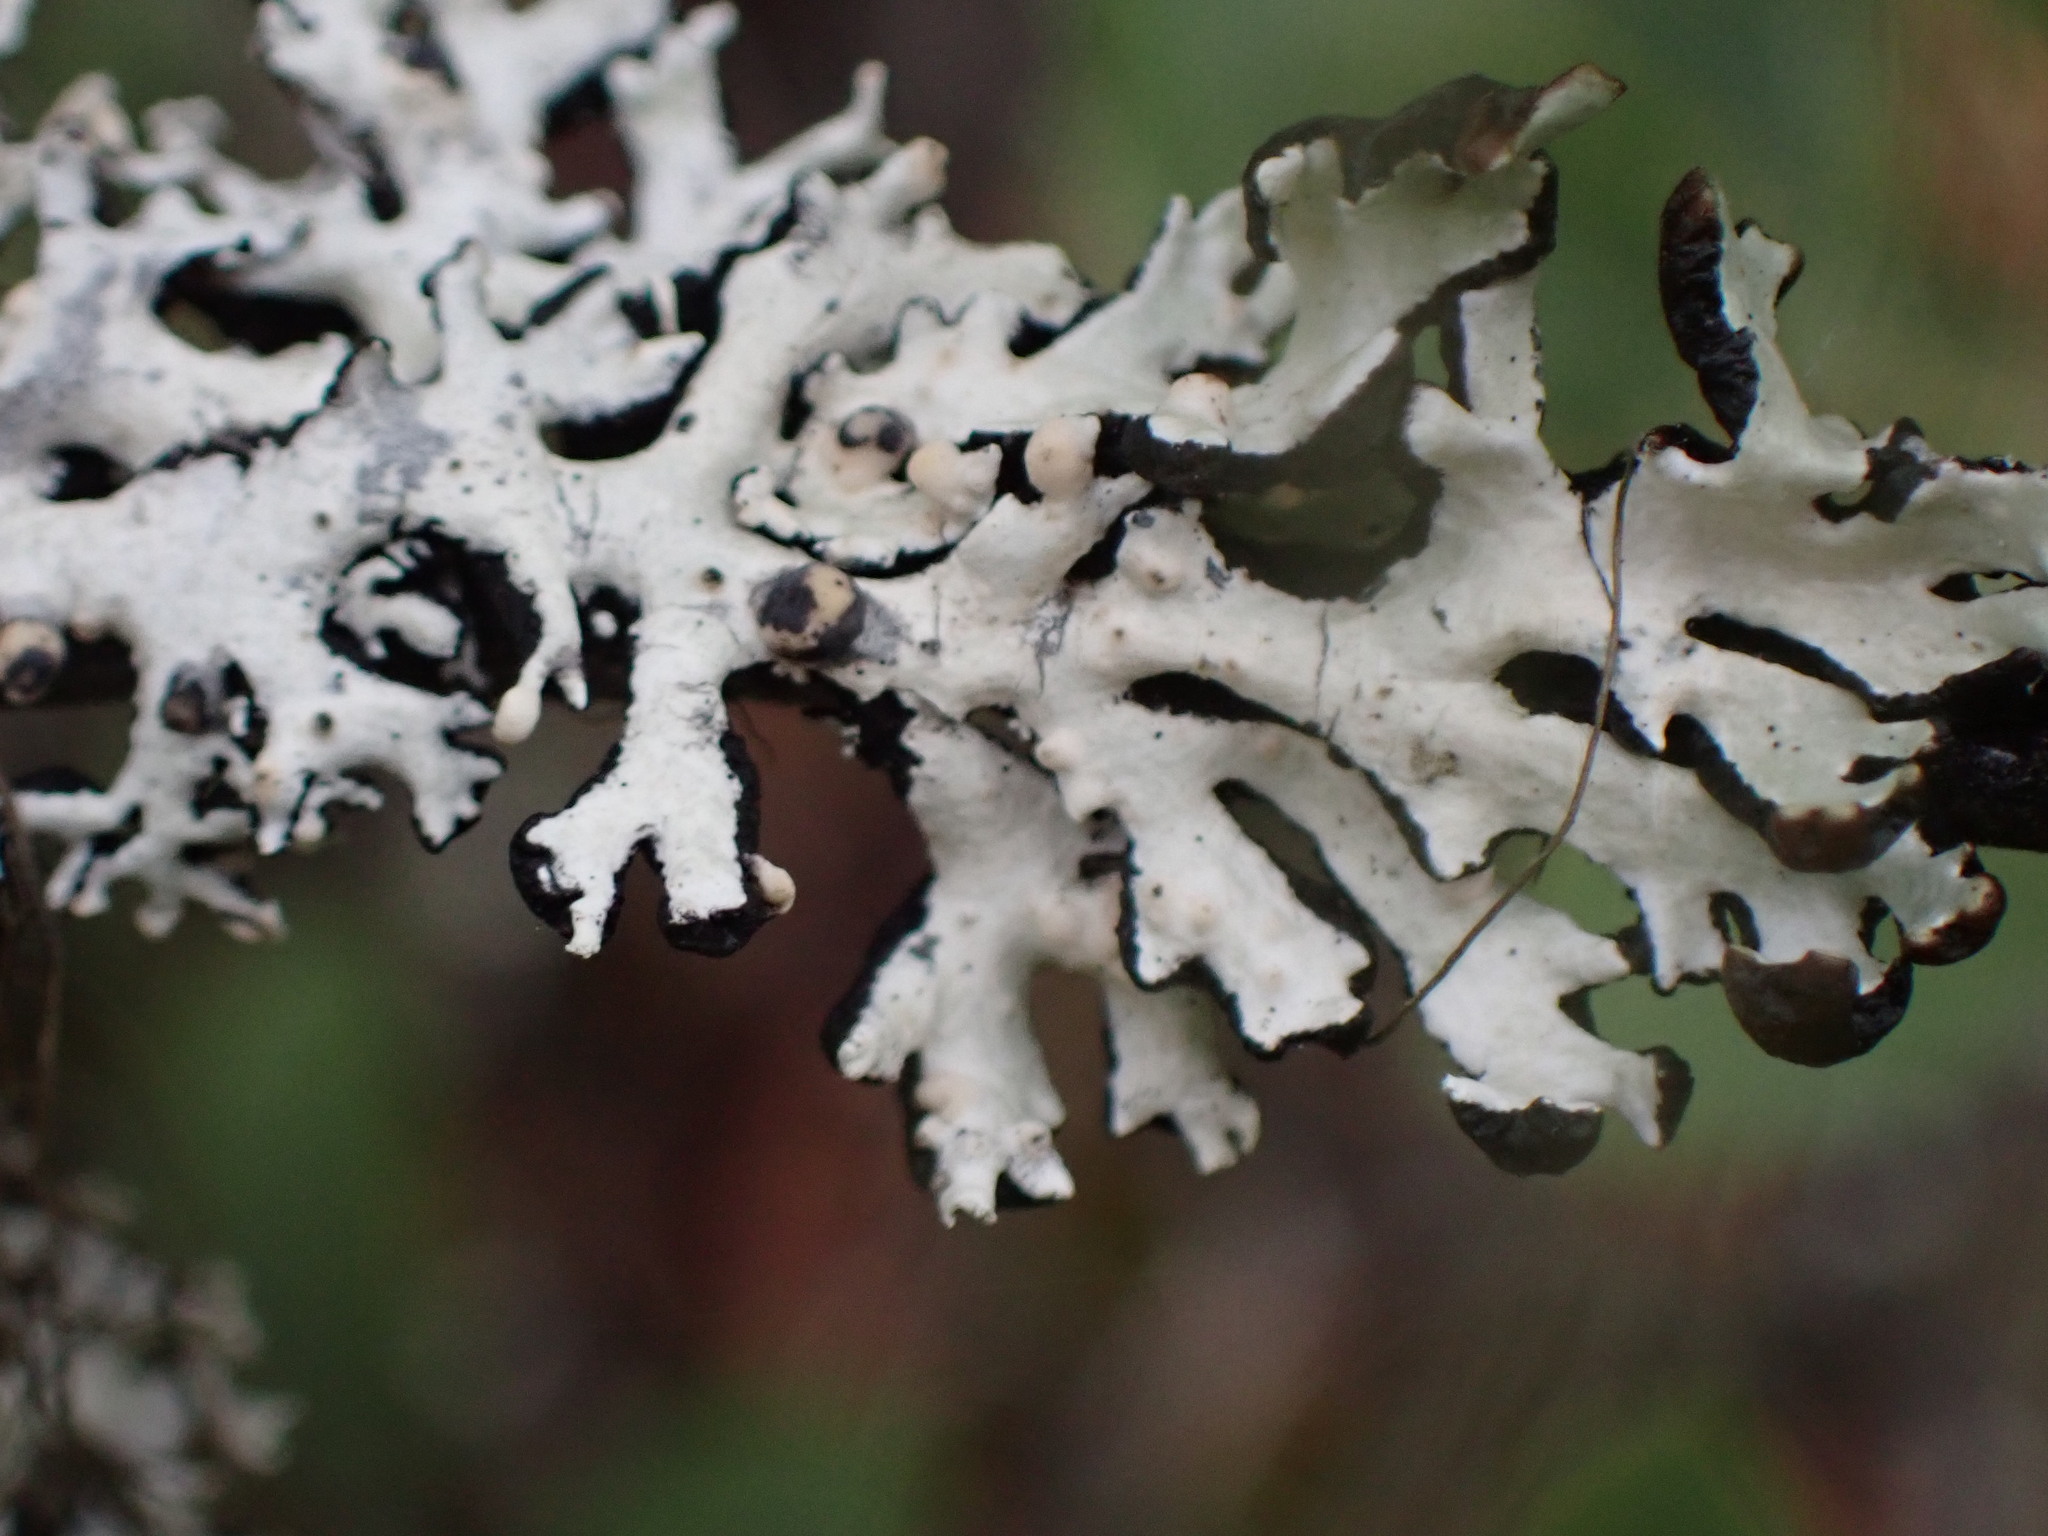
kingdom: Fungi
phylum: Ascomycota
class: Lecanoromycetes
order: Lecanorales
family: Parmeliaceae
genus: Hypogymnia
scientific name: Hypogymnia physodes
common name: Dark crottle
